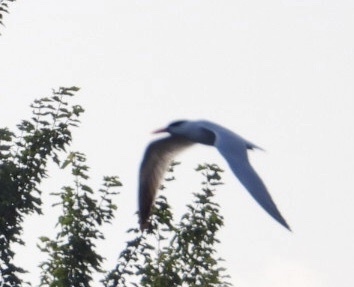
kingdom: Animalia
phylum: Chordata
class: Aves
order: Charadriiformes
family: Laridae
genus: Hydroprogne
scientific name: Hydroprogne caspia
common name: Caspian tern
